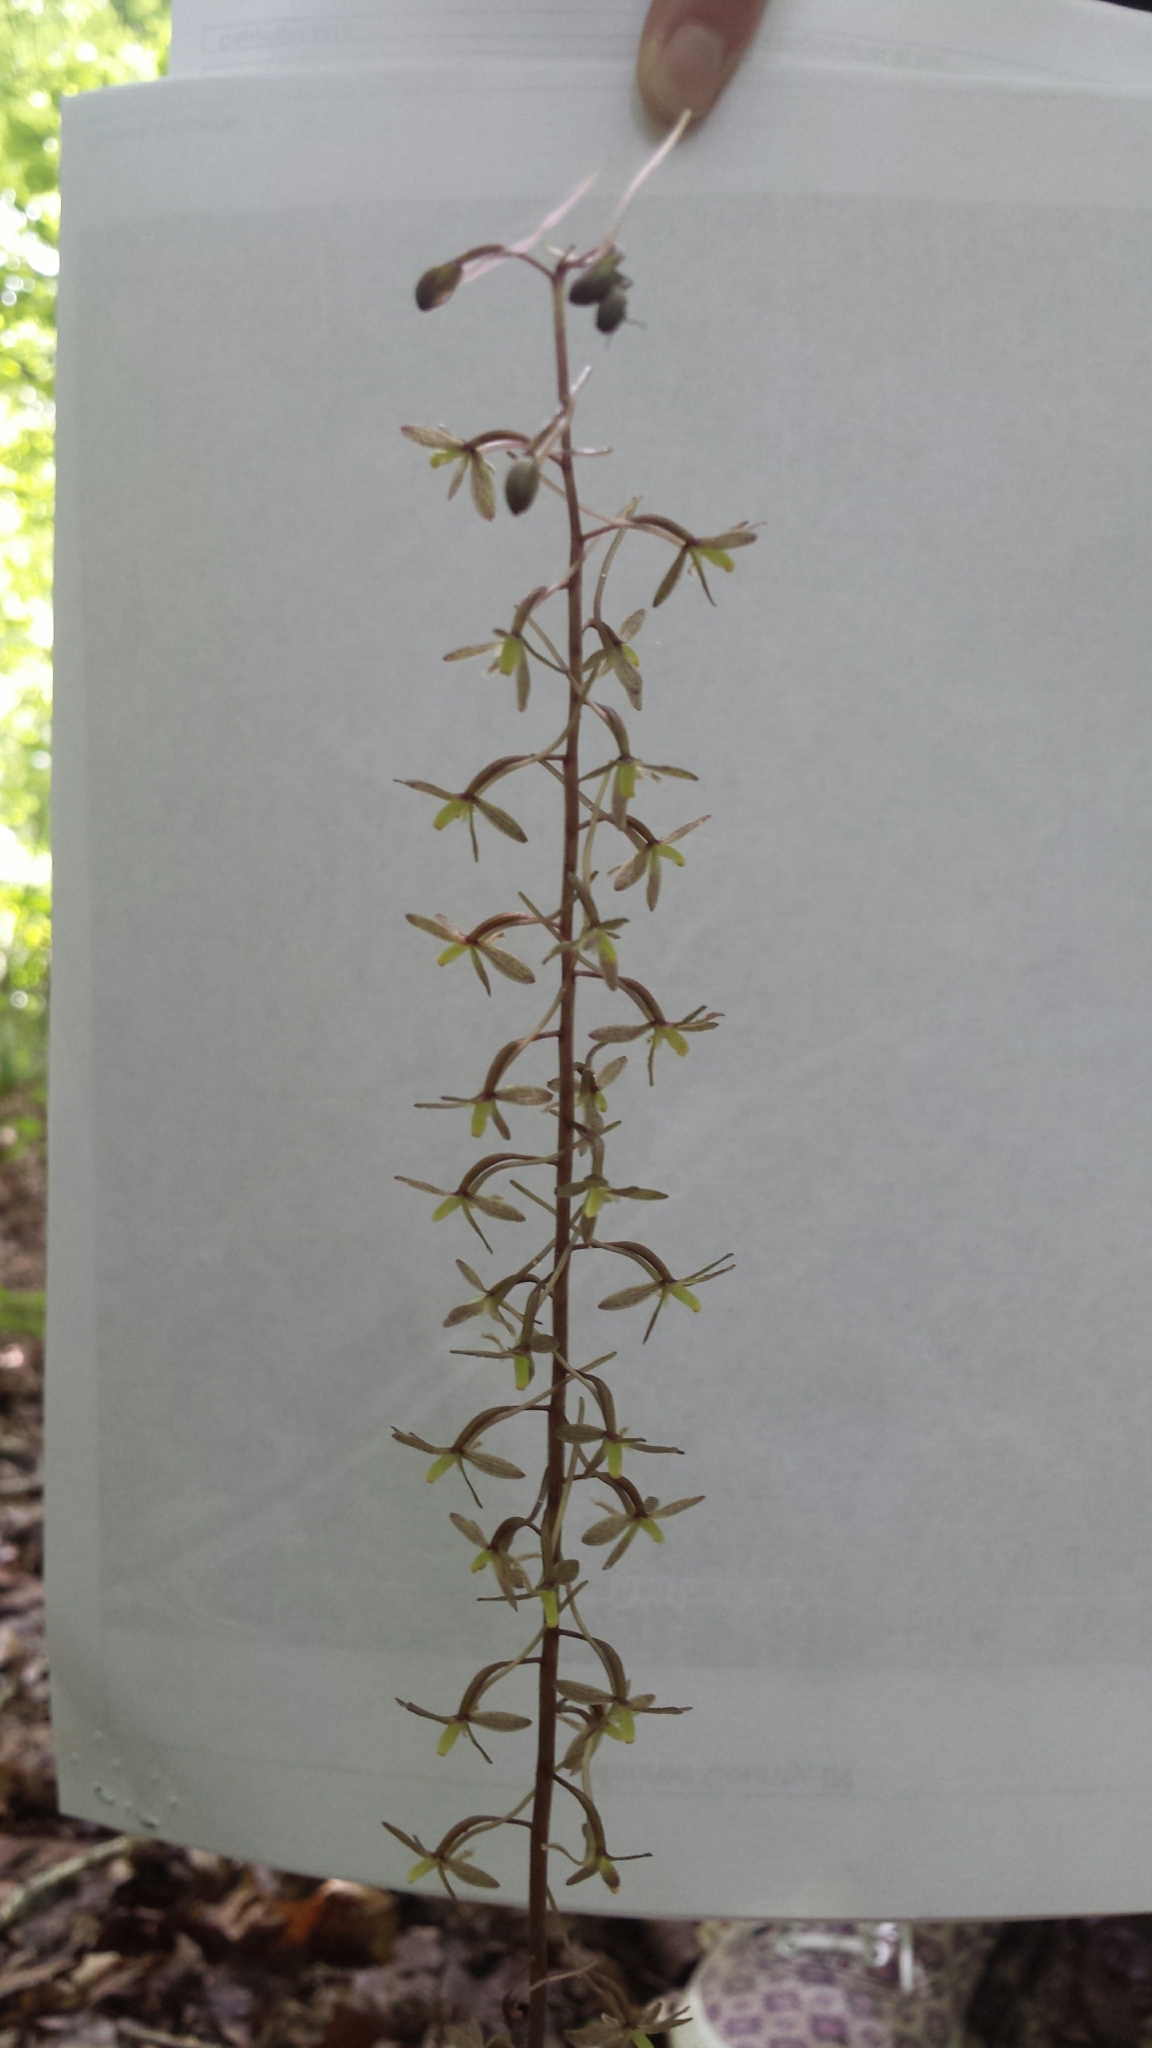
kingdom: Plantae
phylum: Tracheophyta
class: Liliopsida
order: Asparagales
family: Orchidaceae
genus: Tipularia
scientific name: Tipularia discolor
